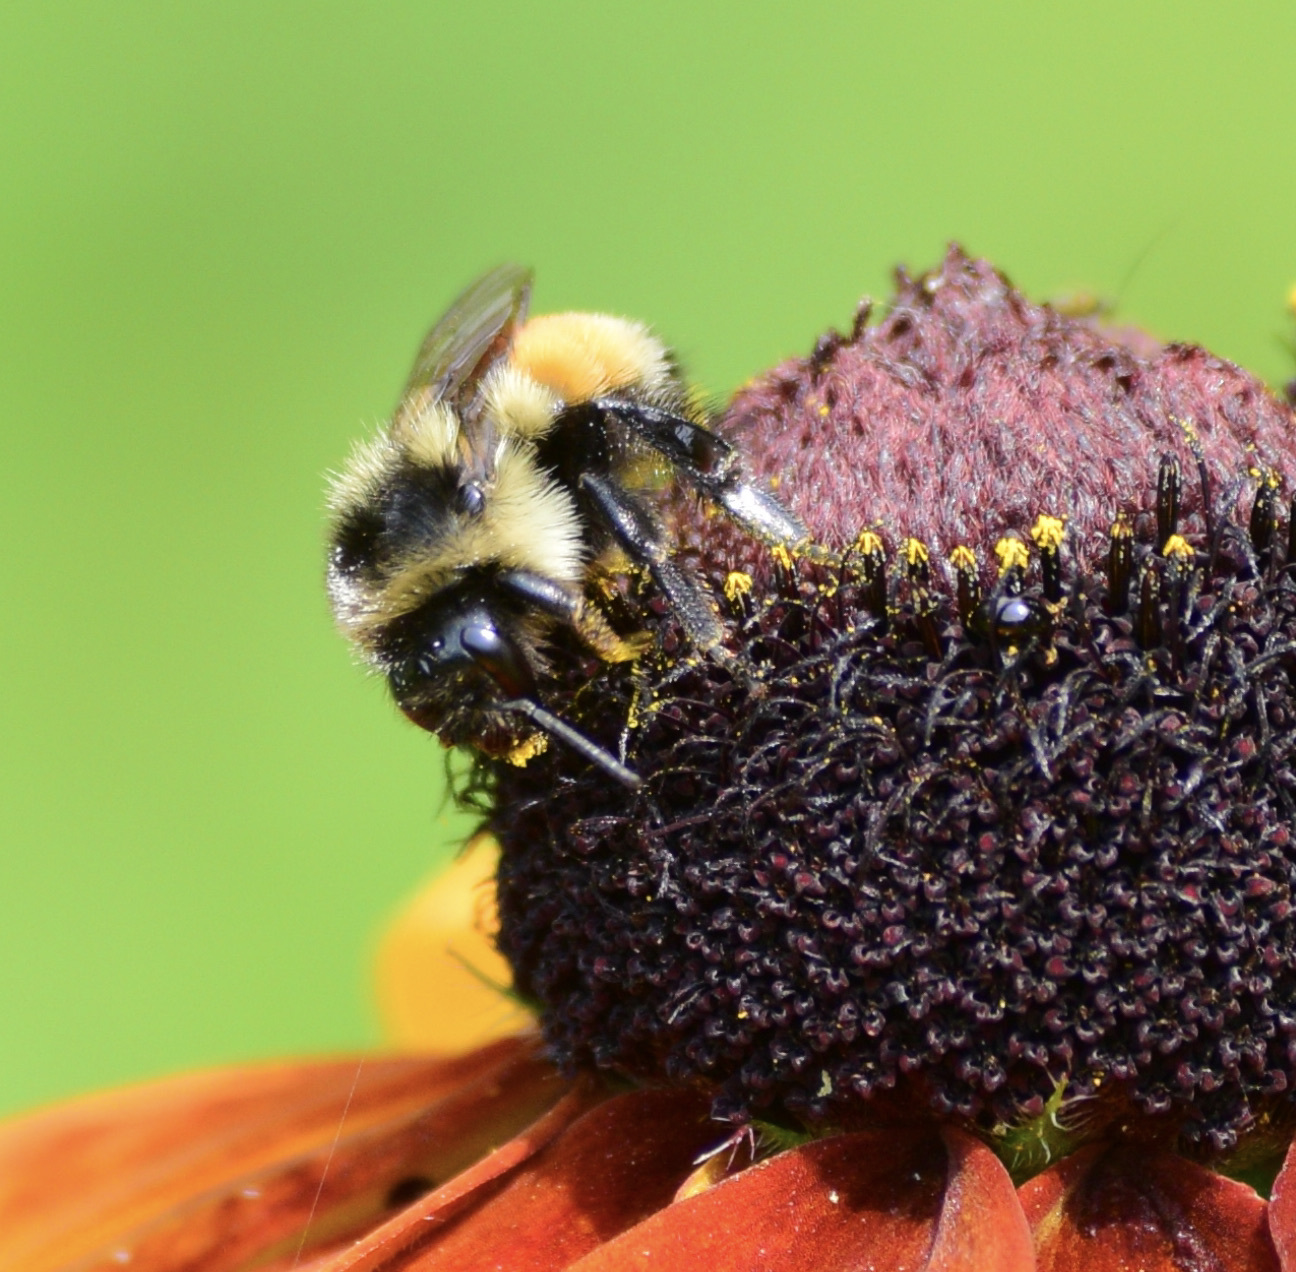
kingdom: Animalia
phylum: Arthropoda
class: Insecta
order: Hymenoptera
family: Apidae
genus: Bombus
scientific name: Bombus ternarius
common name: Tri-colored bumble bee
